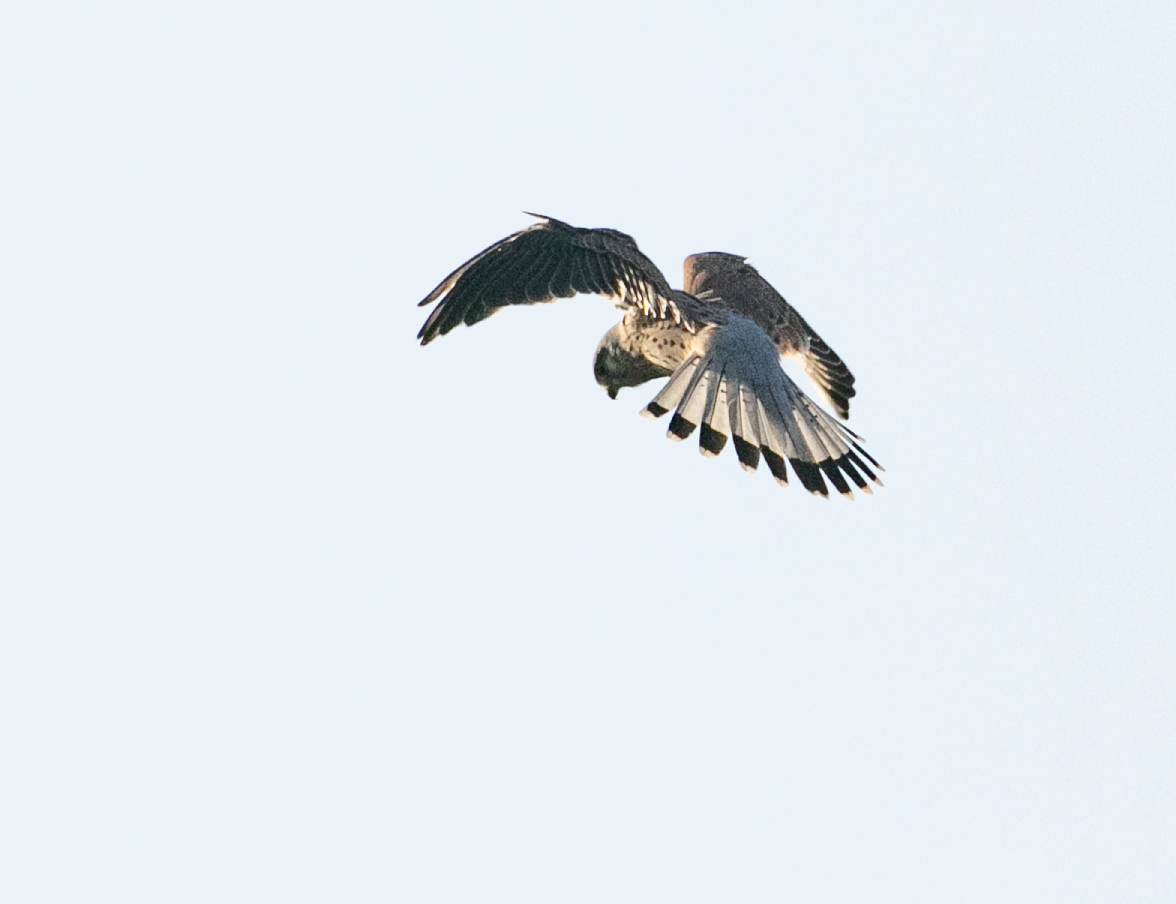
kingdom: Animalia
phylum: Chordata
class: Aves
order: Falconiformes
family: Falconidae
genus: Falco
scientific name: Falco tinnunculus
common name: Common kestrel
